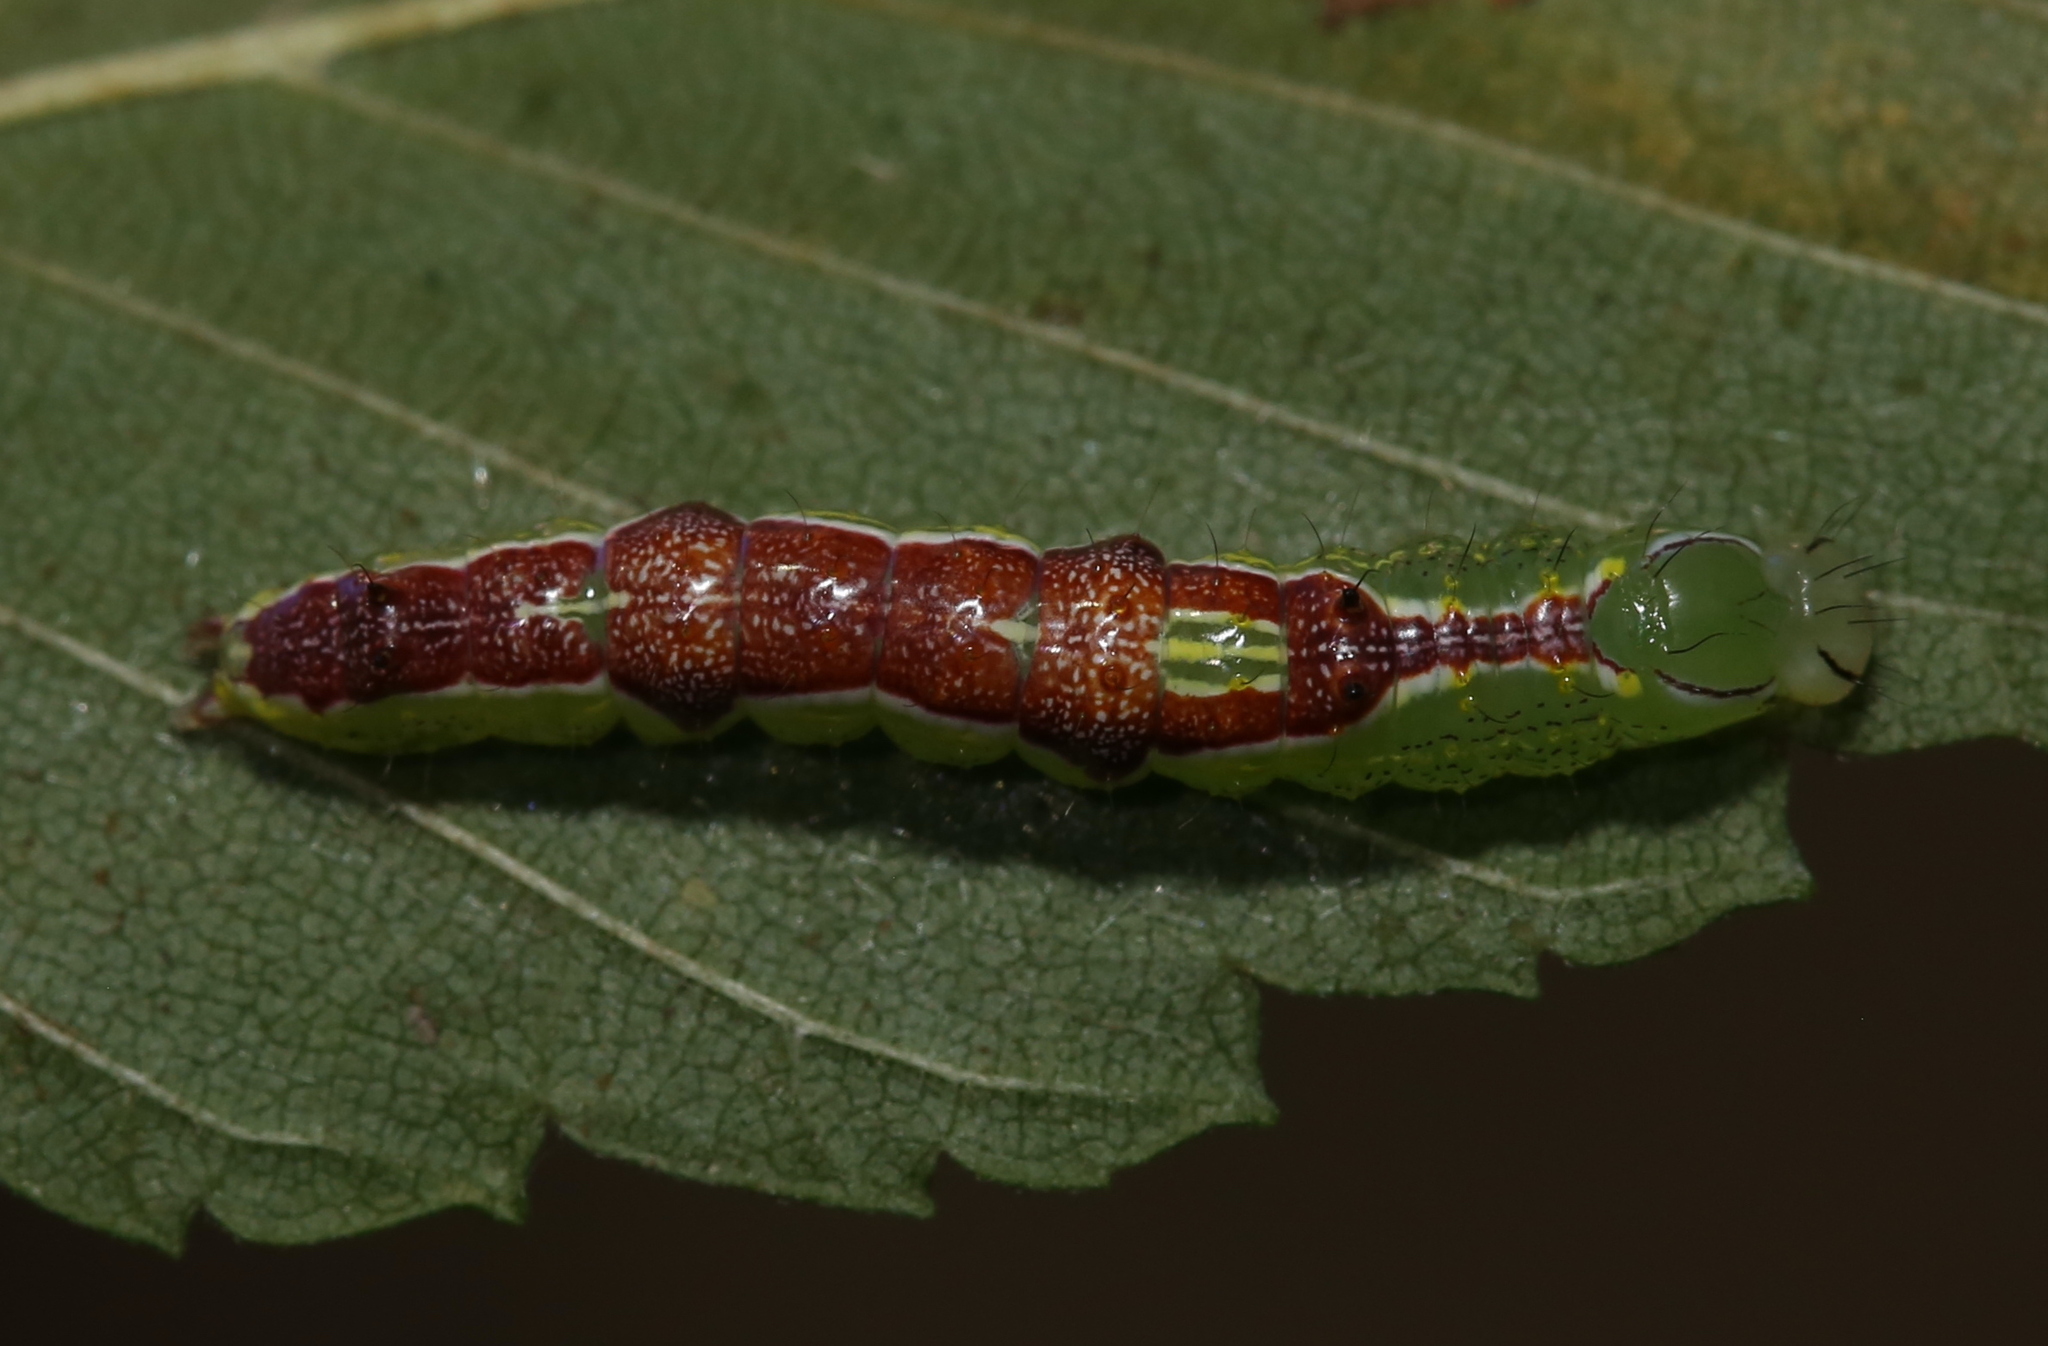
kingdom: Animalia
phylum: Arthropoda
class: Insecta
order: Lepidoptera
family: Notodontidae
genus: Lochmaeus
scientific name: Lochmaeus bilineata
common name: Double-lined prominent
